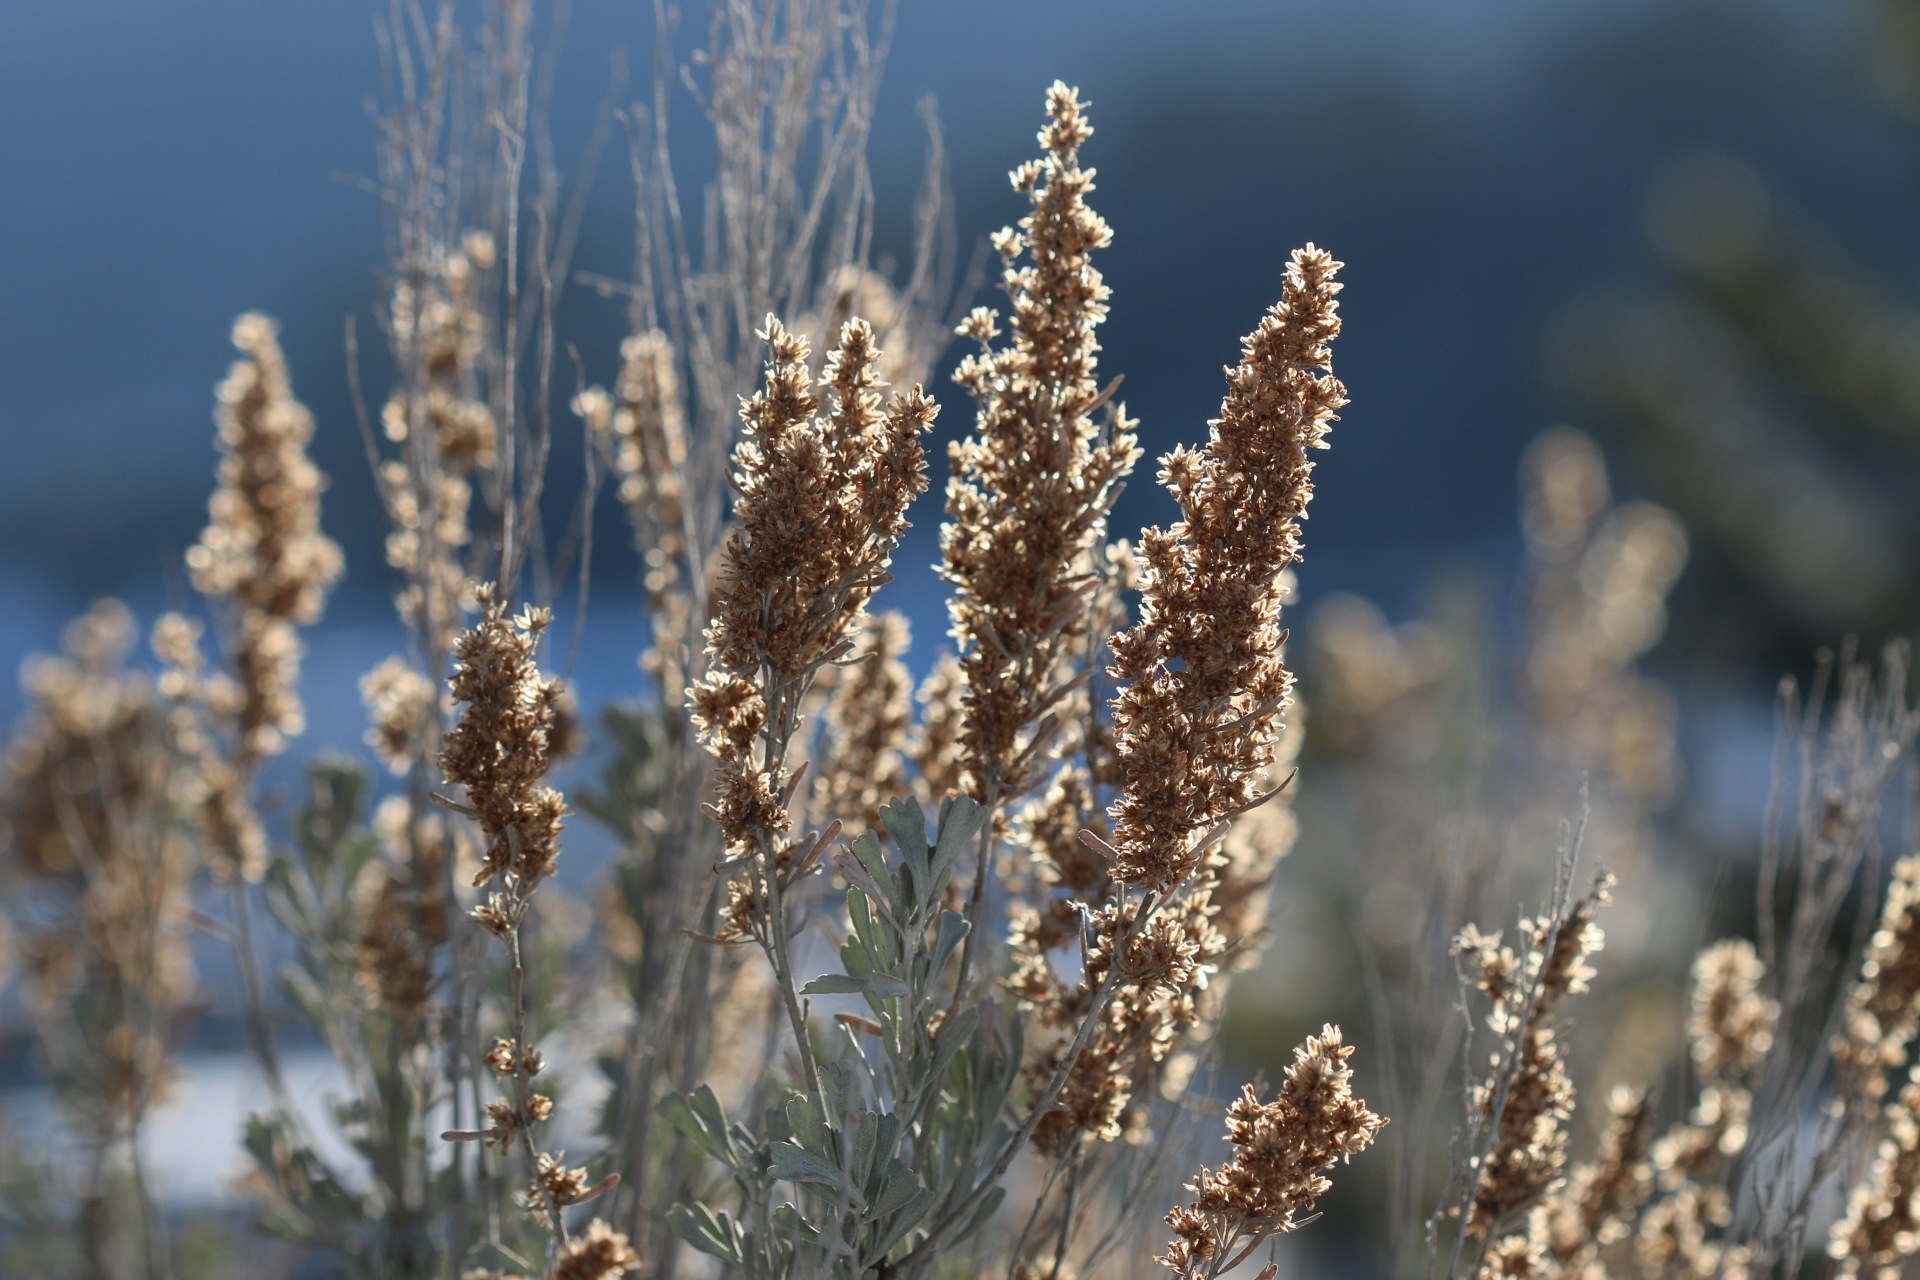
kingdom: Plantae
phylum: Tracheophyta
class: Magnoliopsida
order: Asterales
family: Asteraceae
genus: Artemisia
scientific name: Artemisia tridentata
